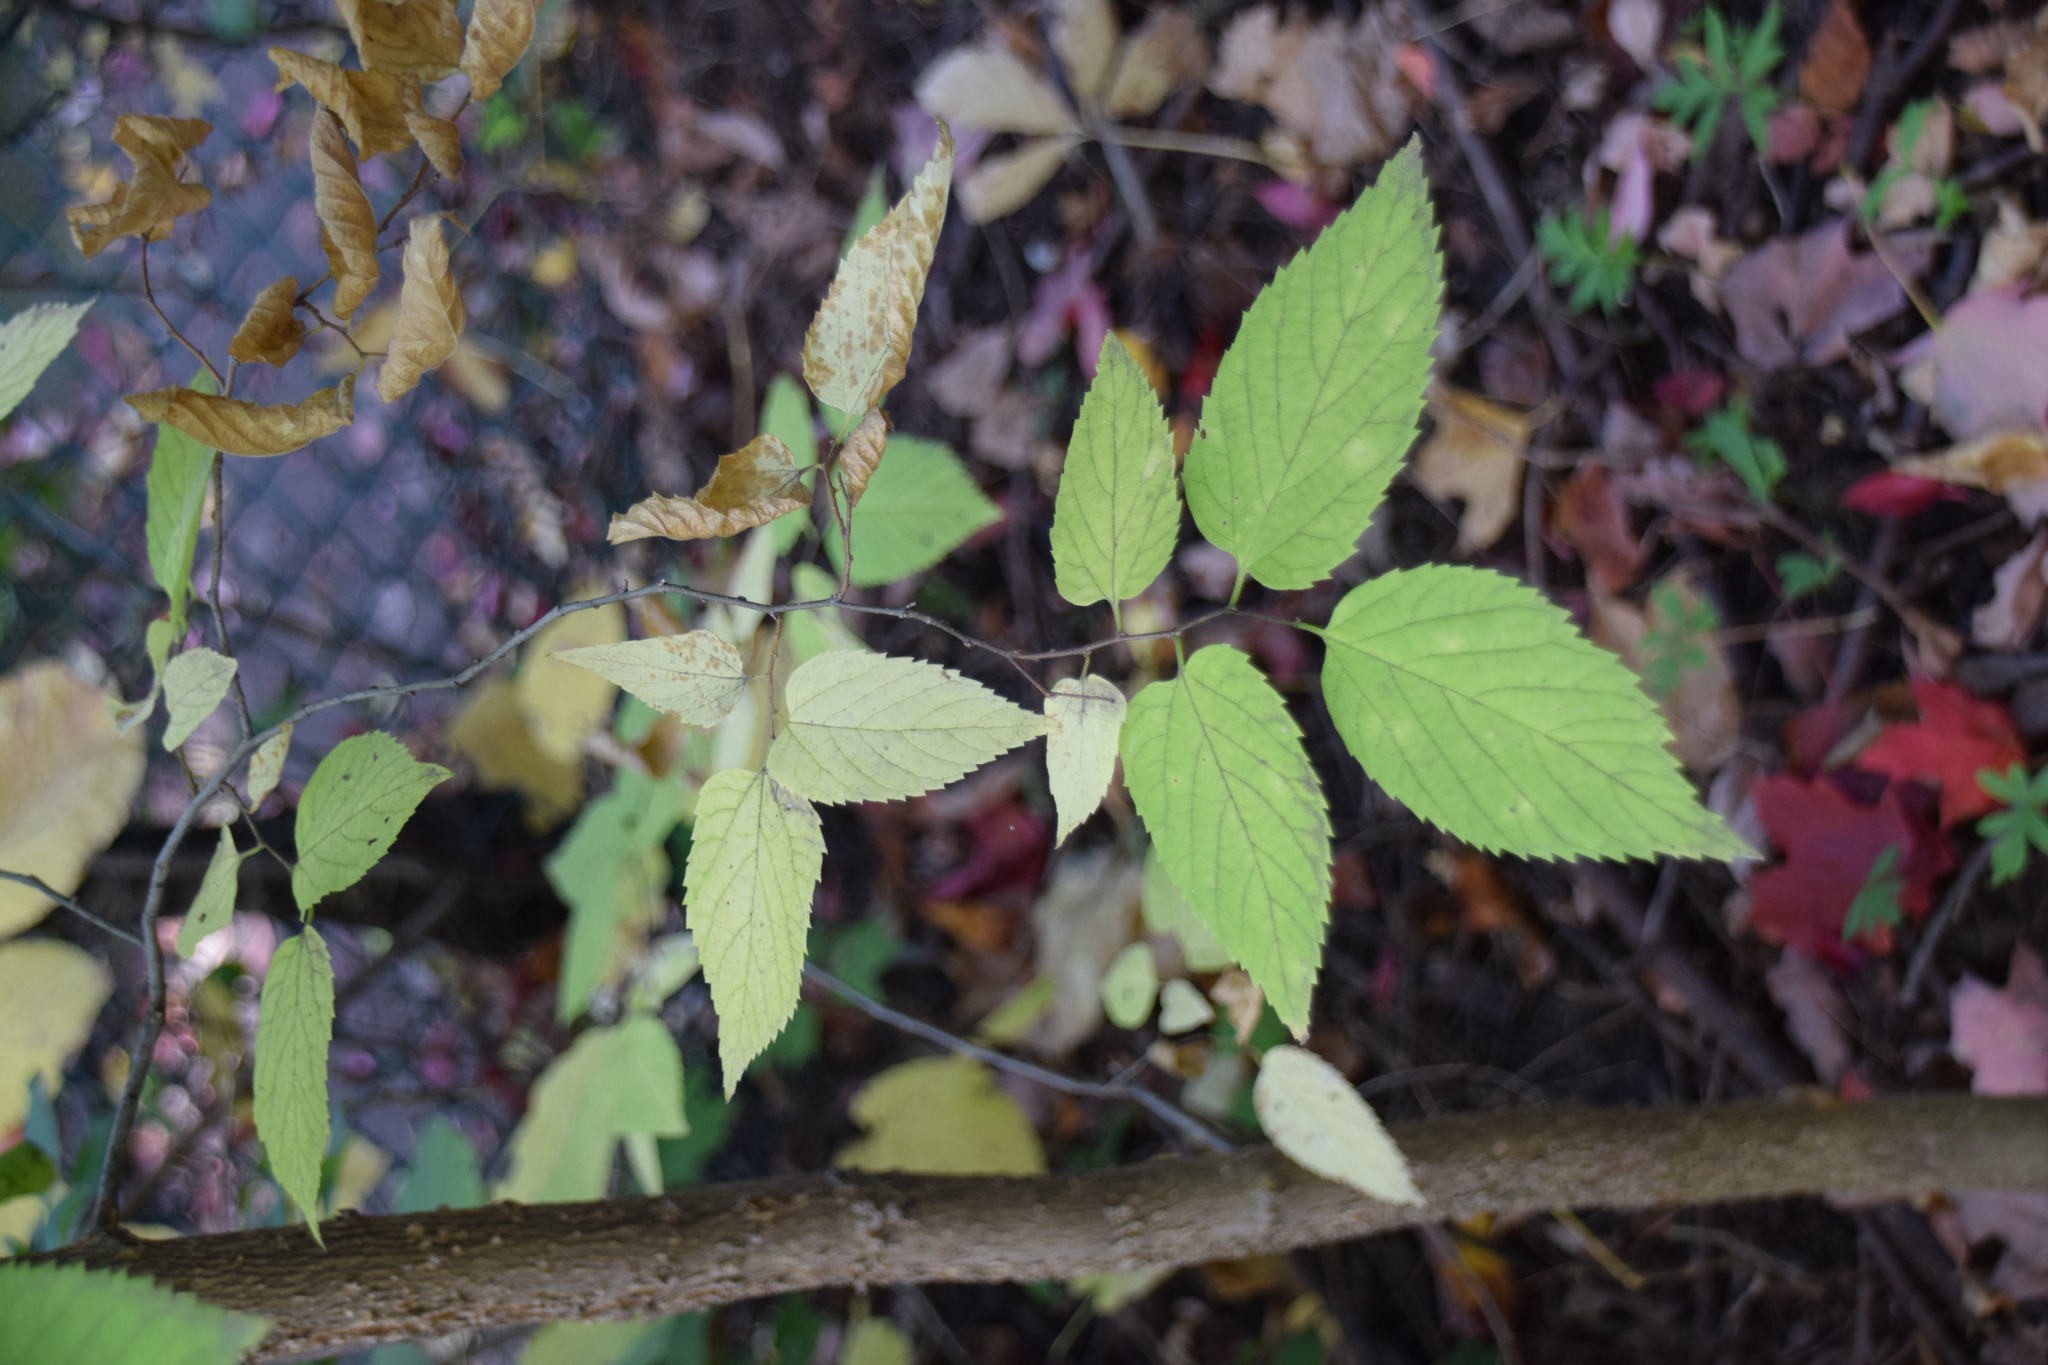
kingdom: Plantae
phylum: Tracheophyta
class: Magnoliopsida
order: Rosales
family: Cannabaceae
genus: Celtis
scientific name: Celtis occidentalis
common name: Common hackberry
